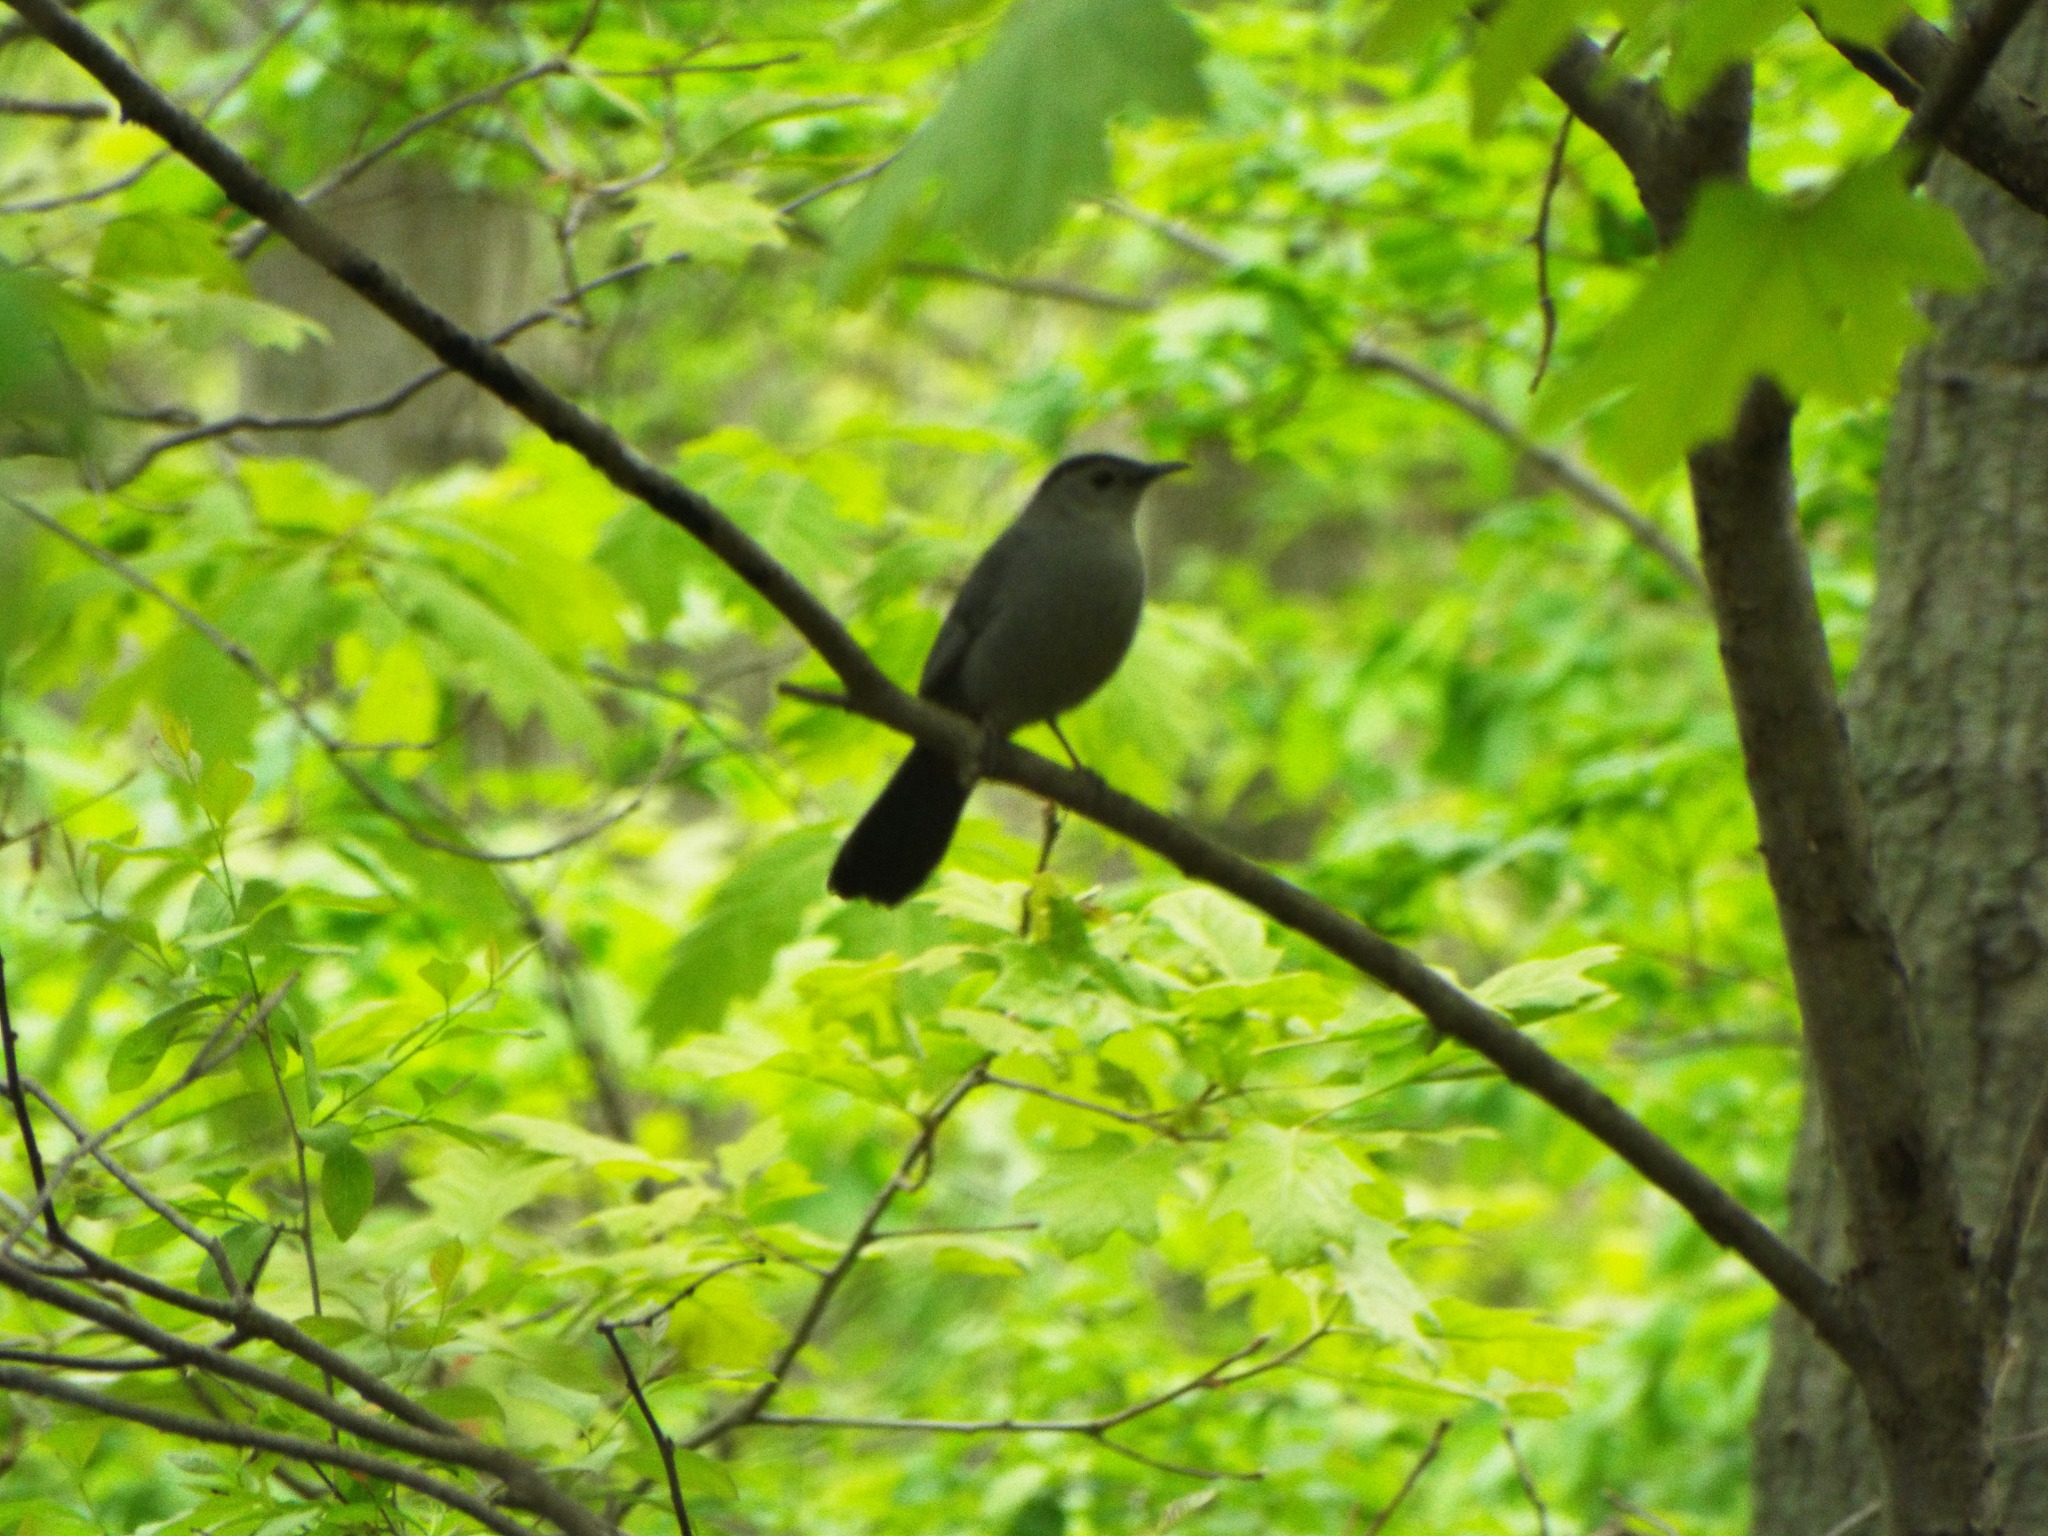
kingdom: Animalia
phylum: Chordata
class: Aves
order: Passeriformes
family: Mimidae
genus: Dumetella
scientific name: Dumetella carolinensis
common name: Gray catbird
